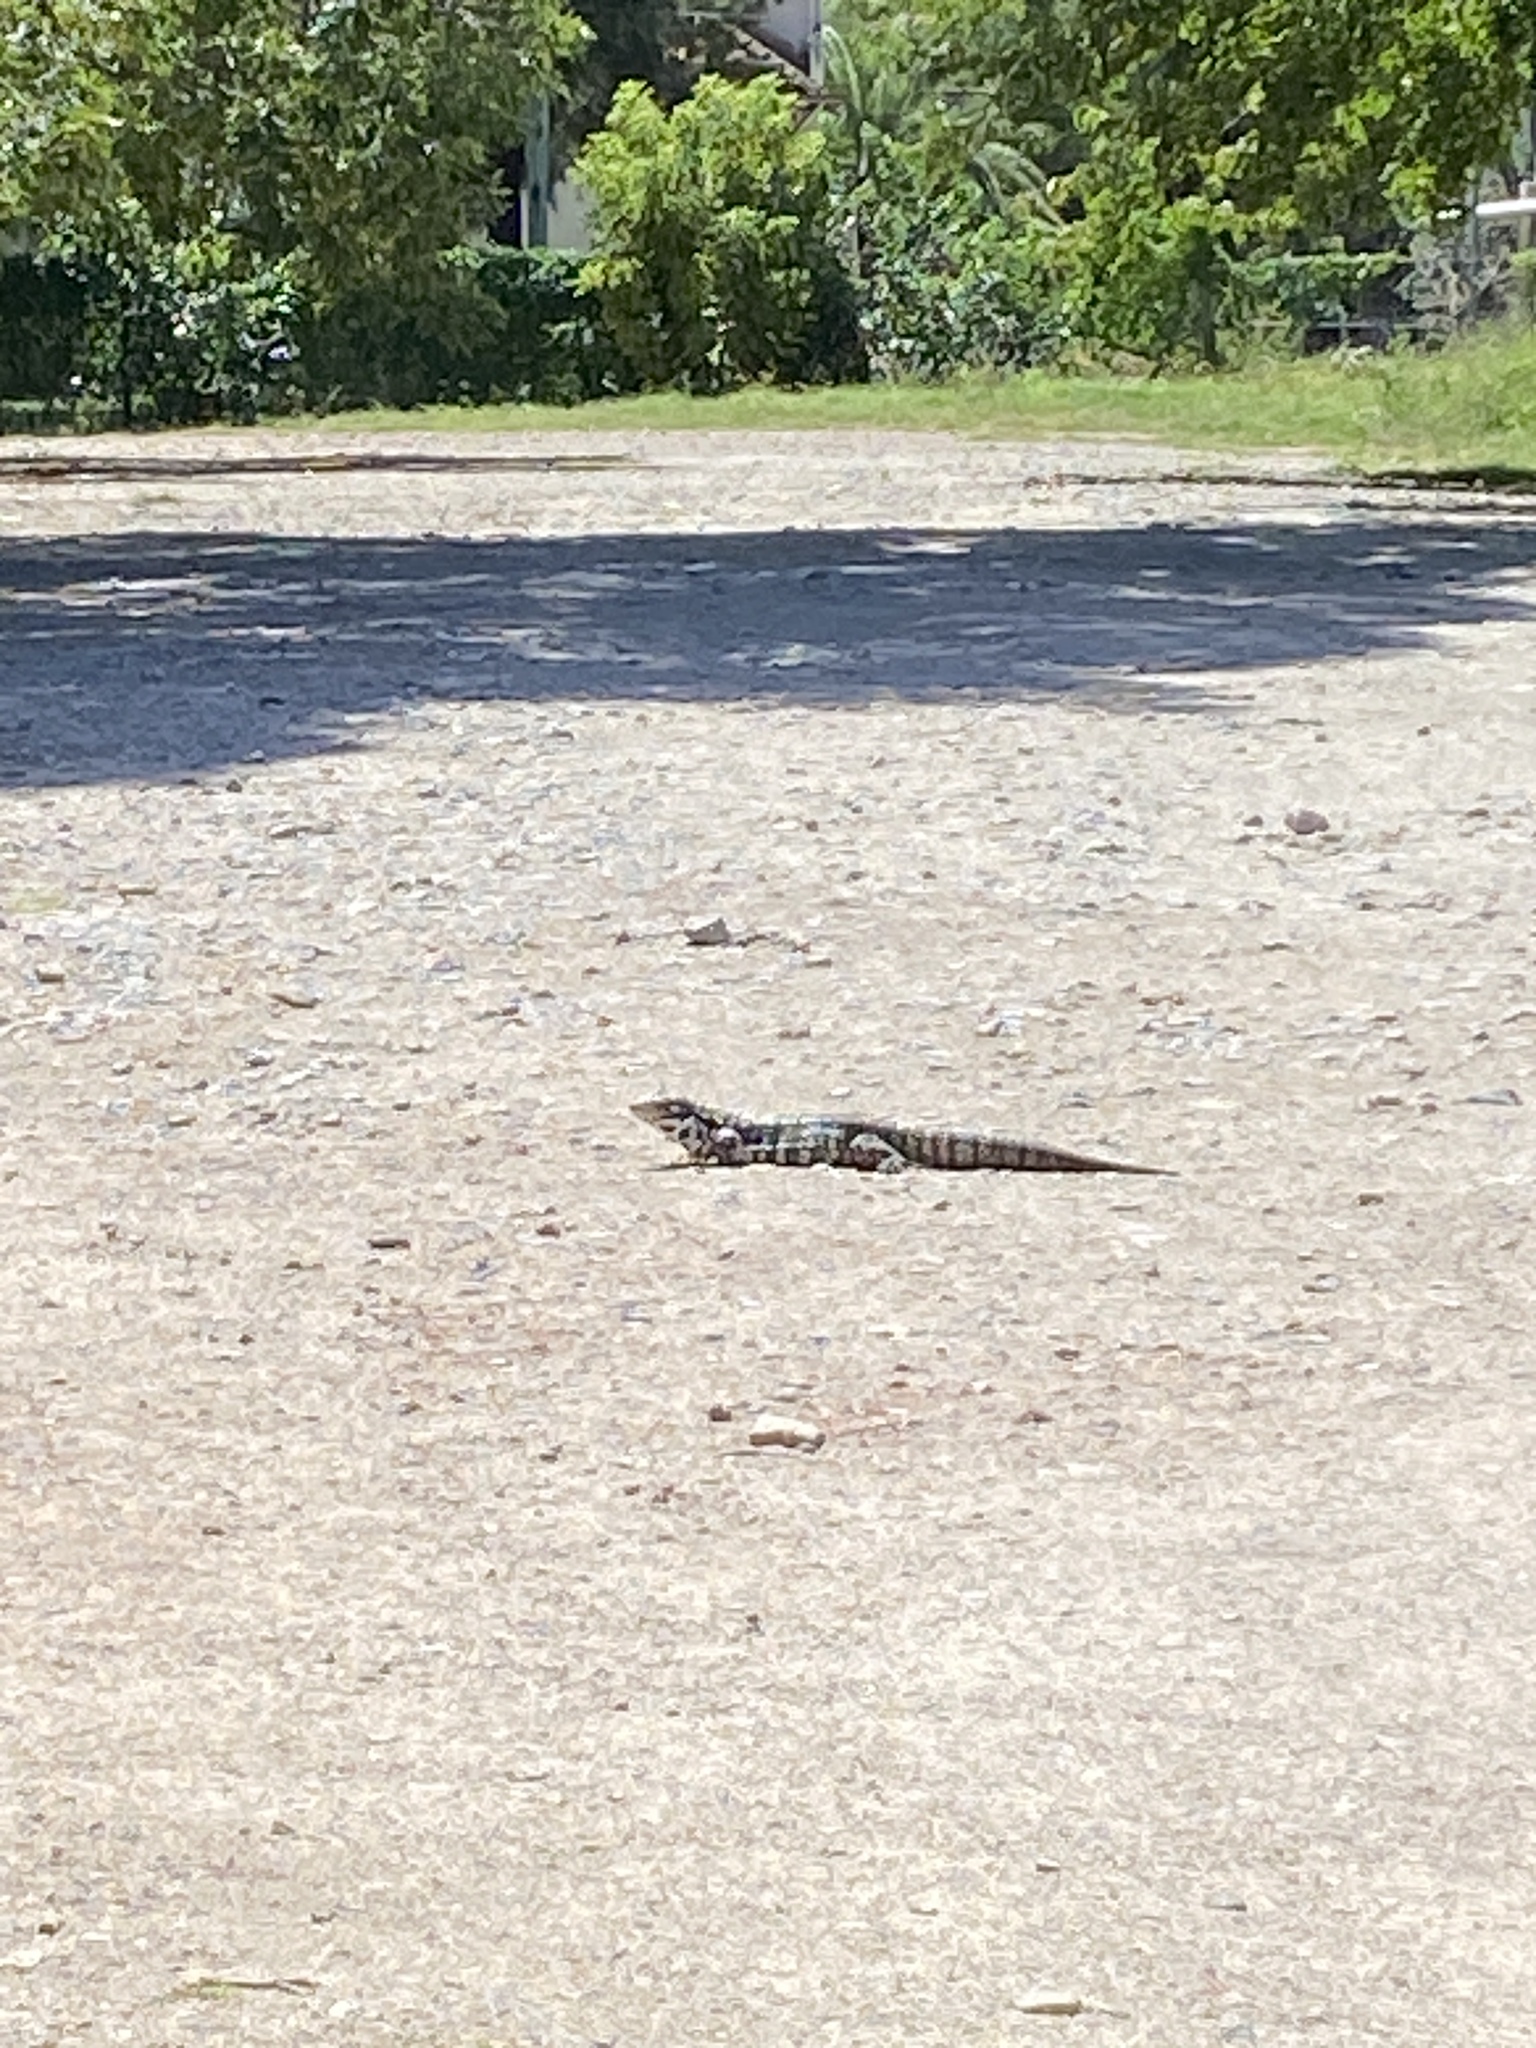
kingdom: Animalia
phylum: Chordata
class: Squamata
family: Teiidae
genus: Salvator
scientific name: Salvator merianae
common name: Argentine black and white tegu
